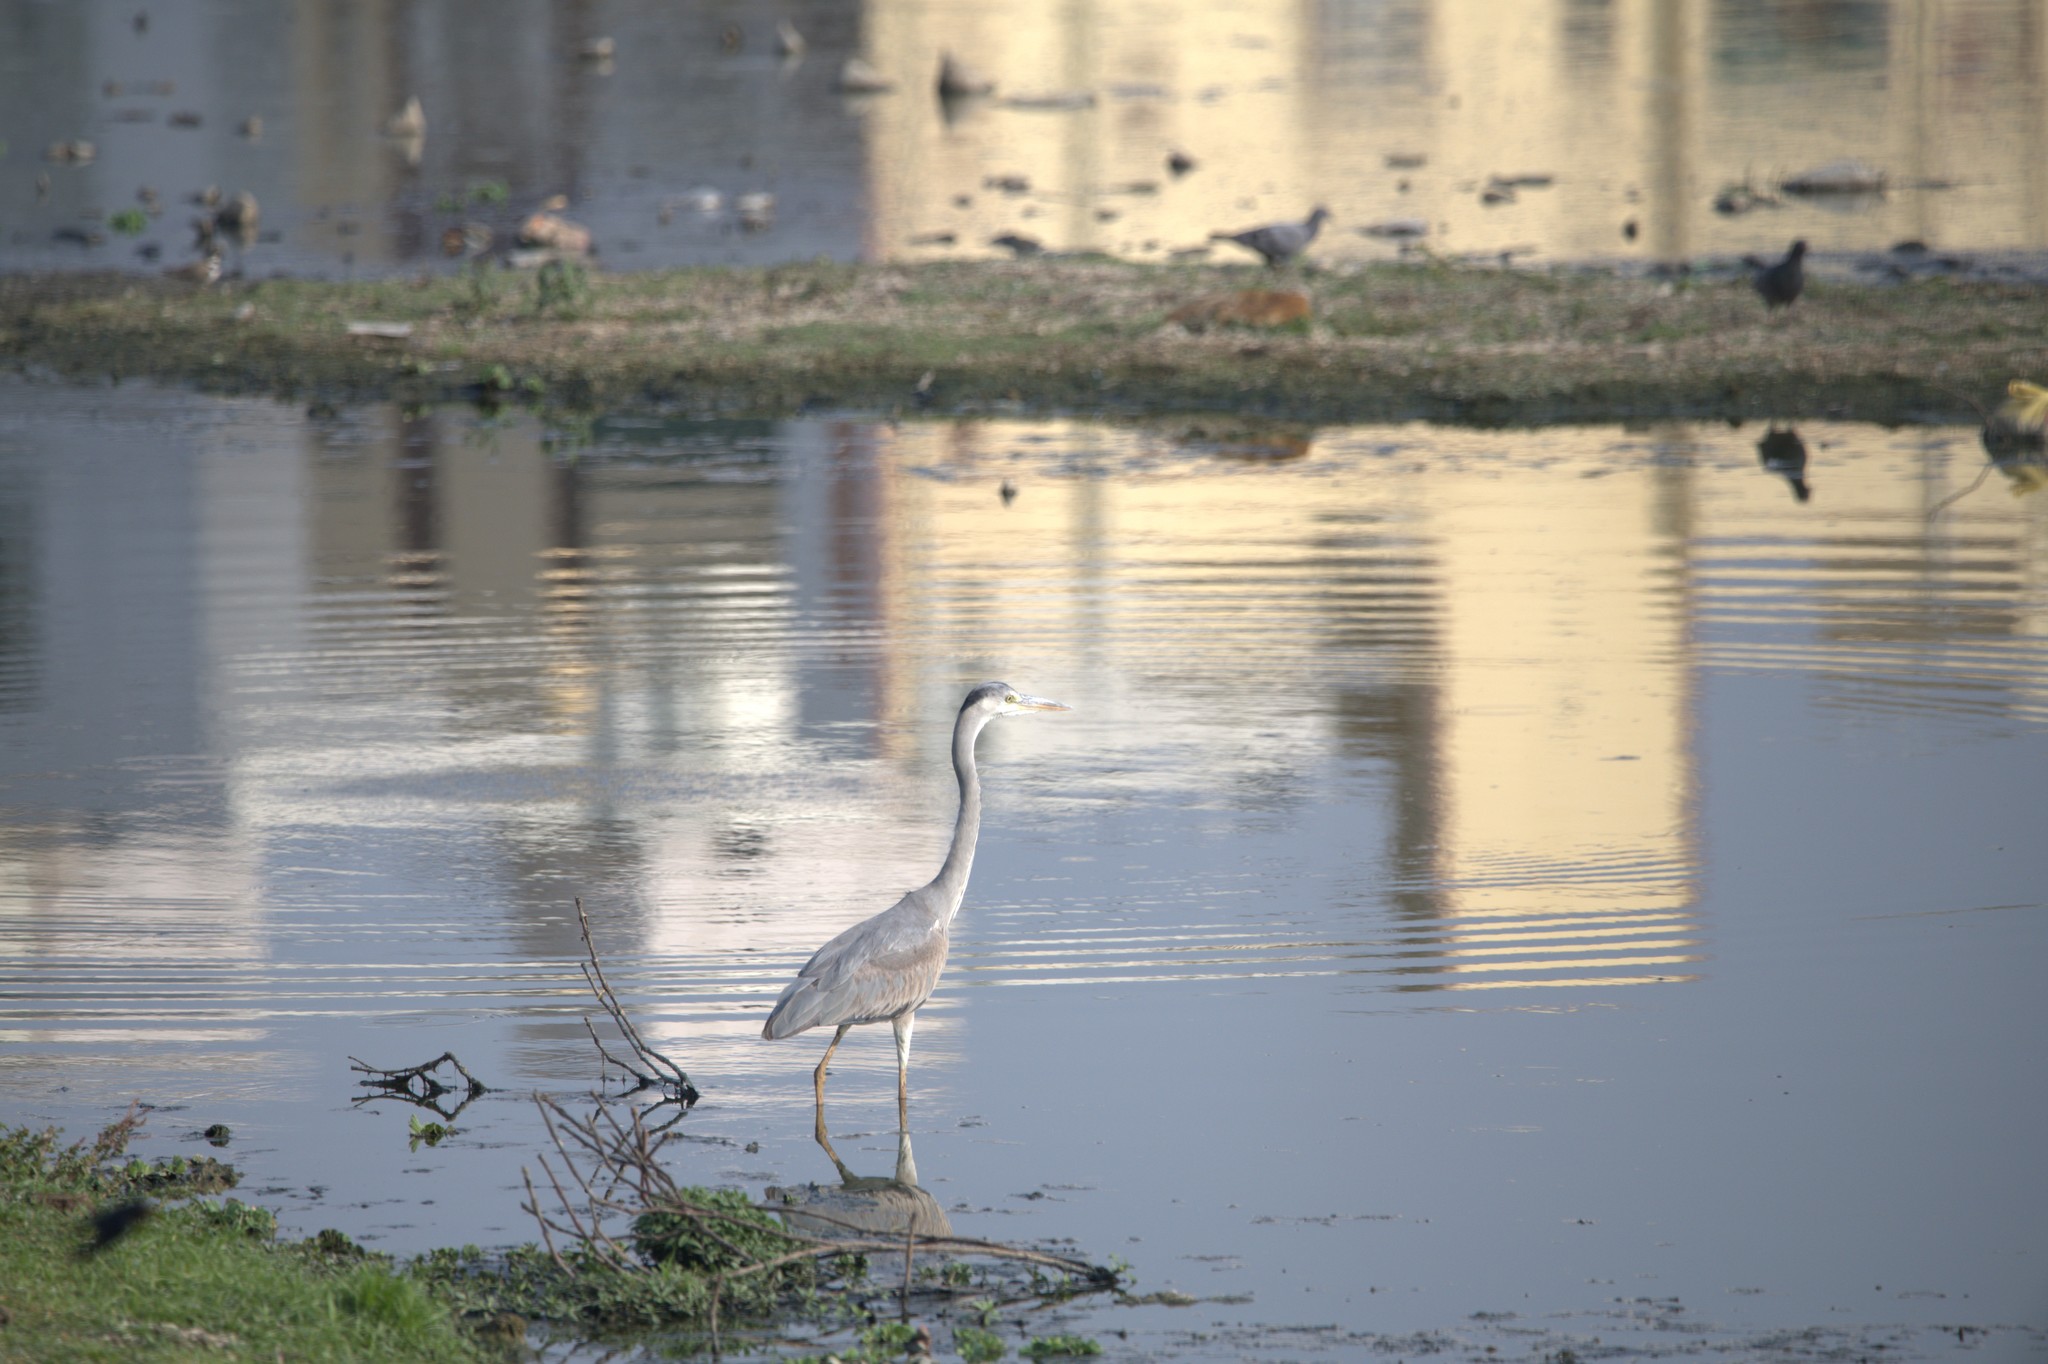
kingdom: Animalia
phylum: Chordata
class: Aves
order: Pelecaniformes
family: Ardeidae
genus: Ardea
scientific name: Ardea cinerea
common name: Grey heron
